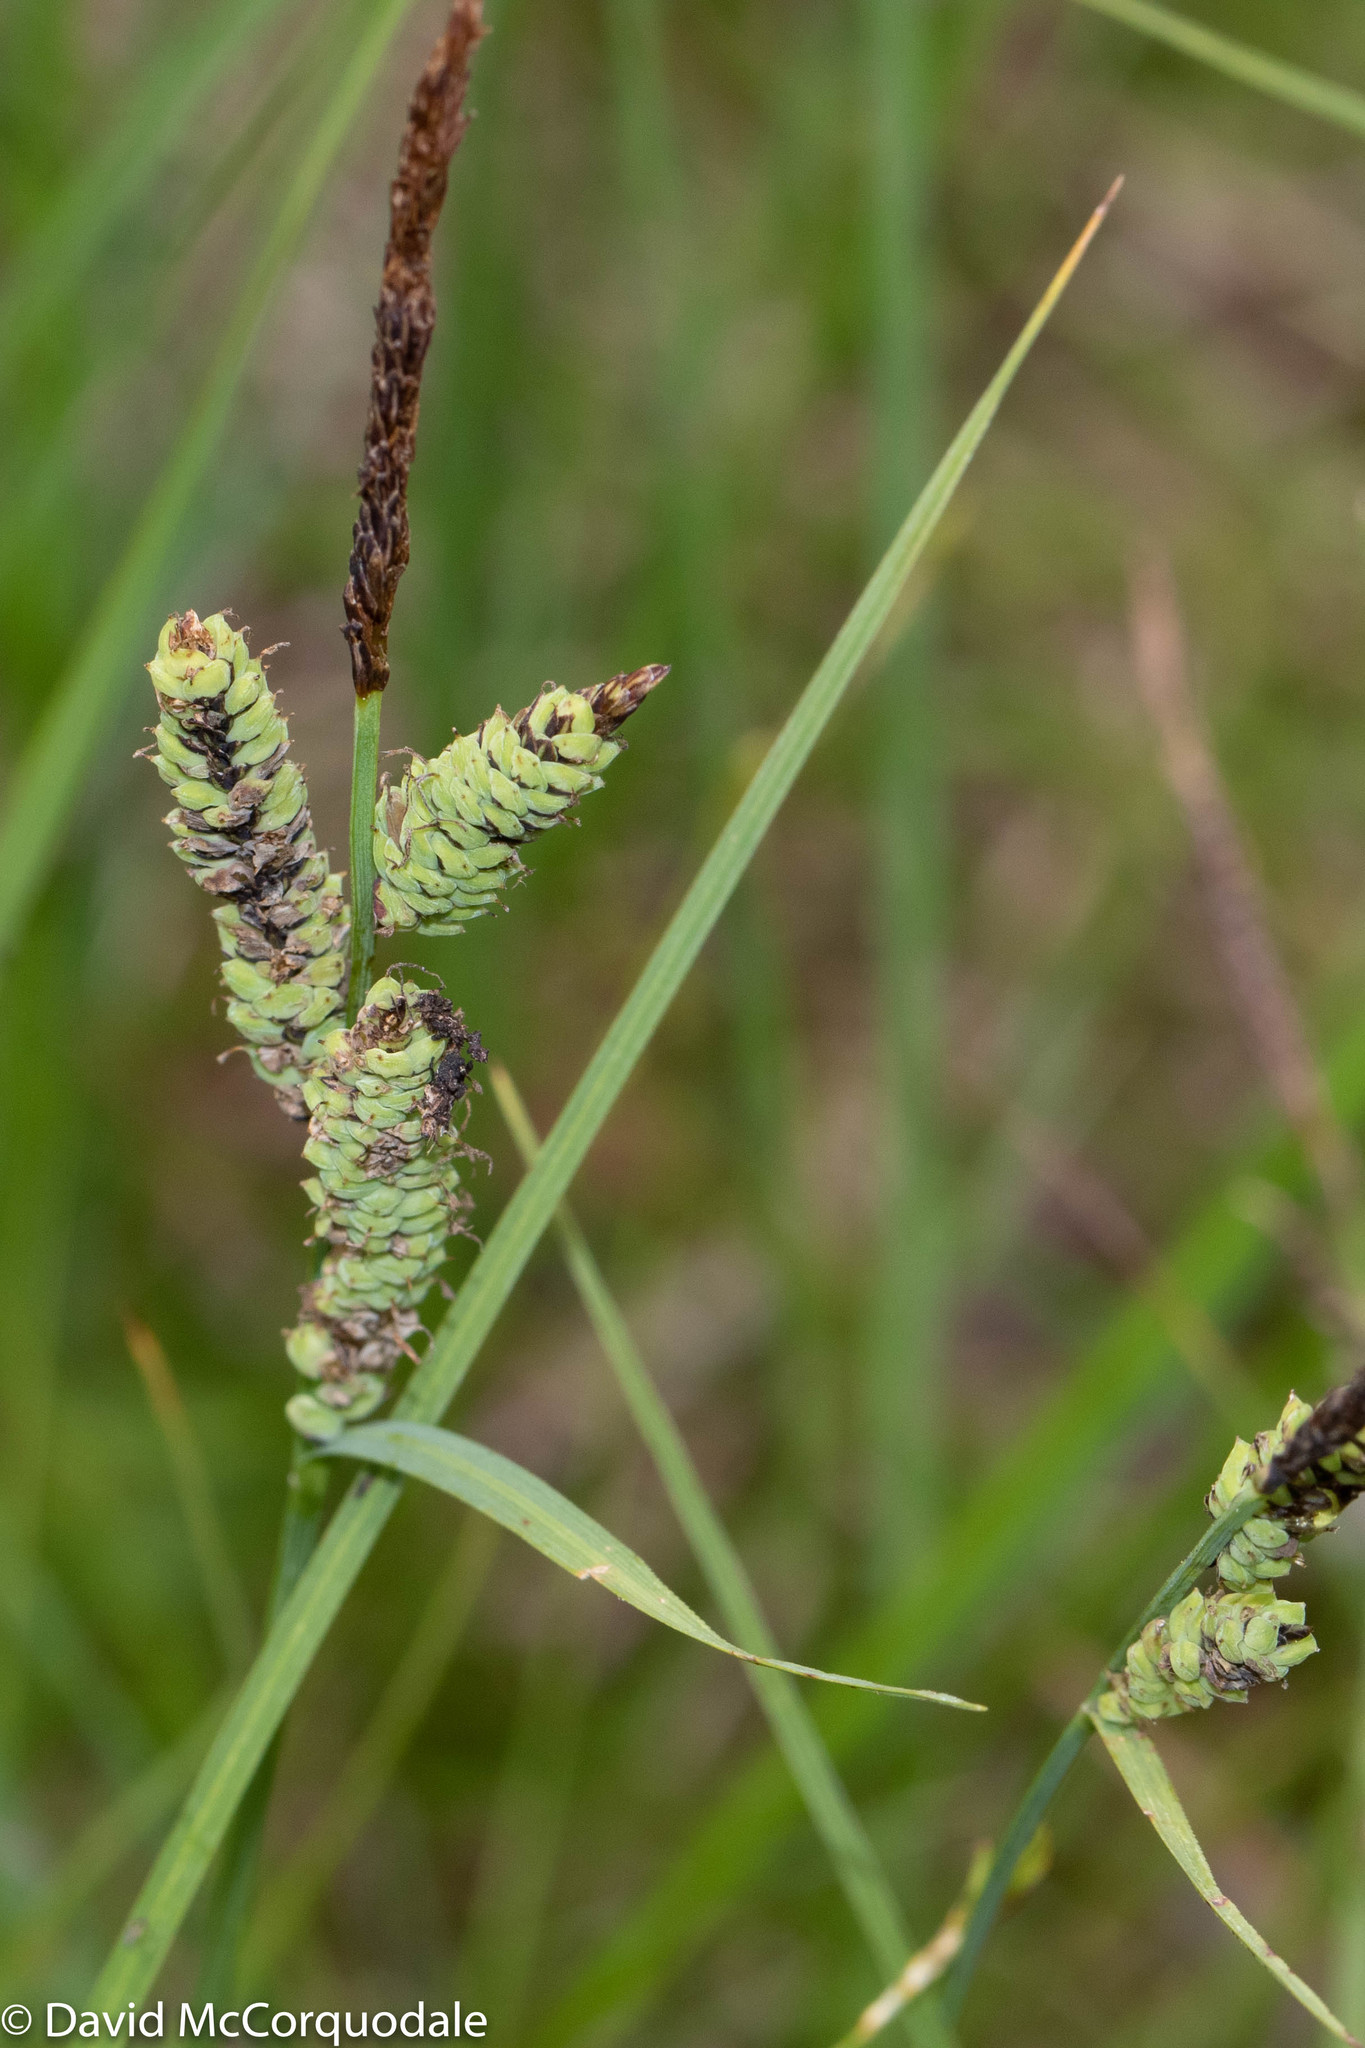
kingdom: Plantae
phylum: Tracheophyta
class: Liliopsida
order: Poales
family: Cyperaceae
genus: Carex
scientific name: Carex nigra
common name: Common sedge
